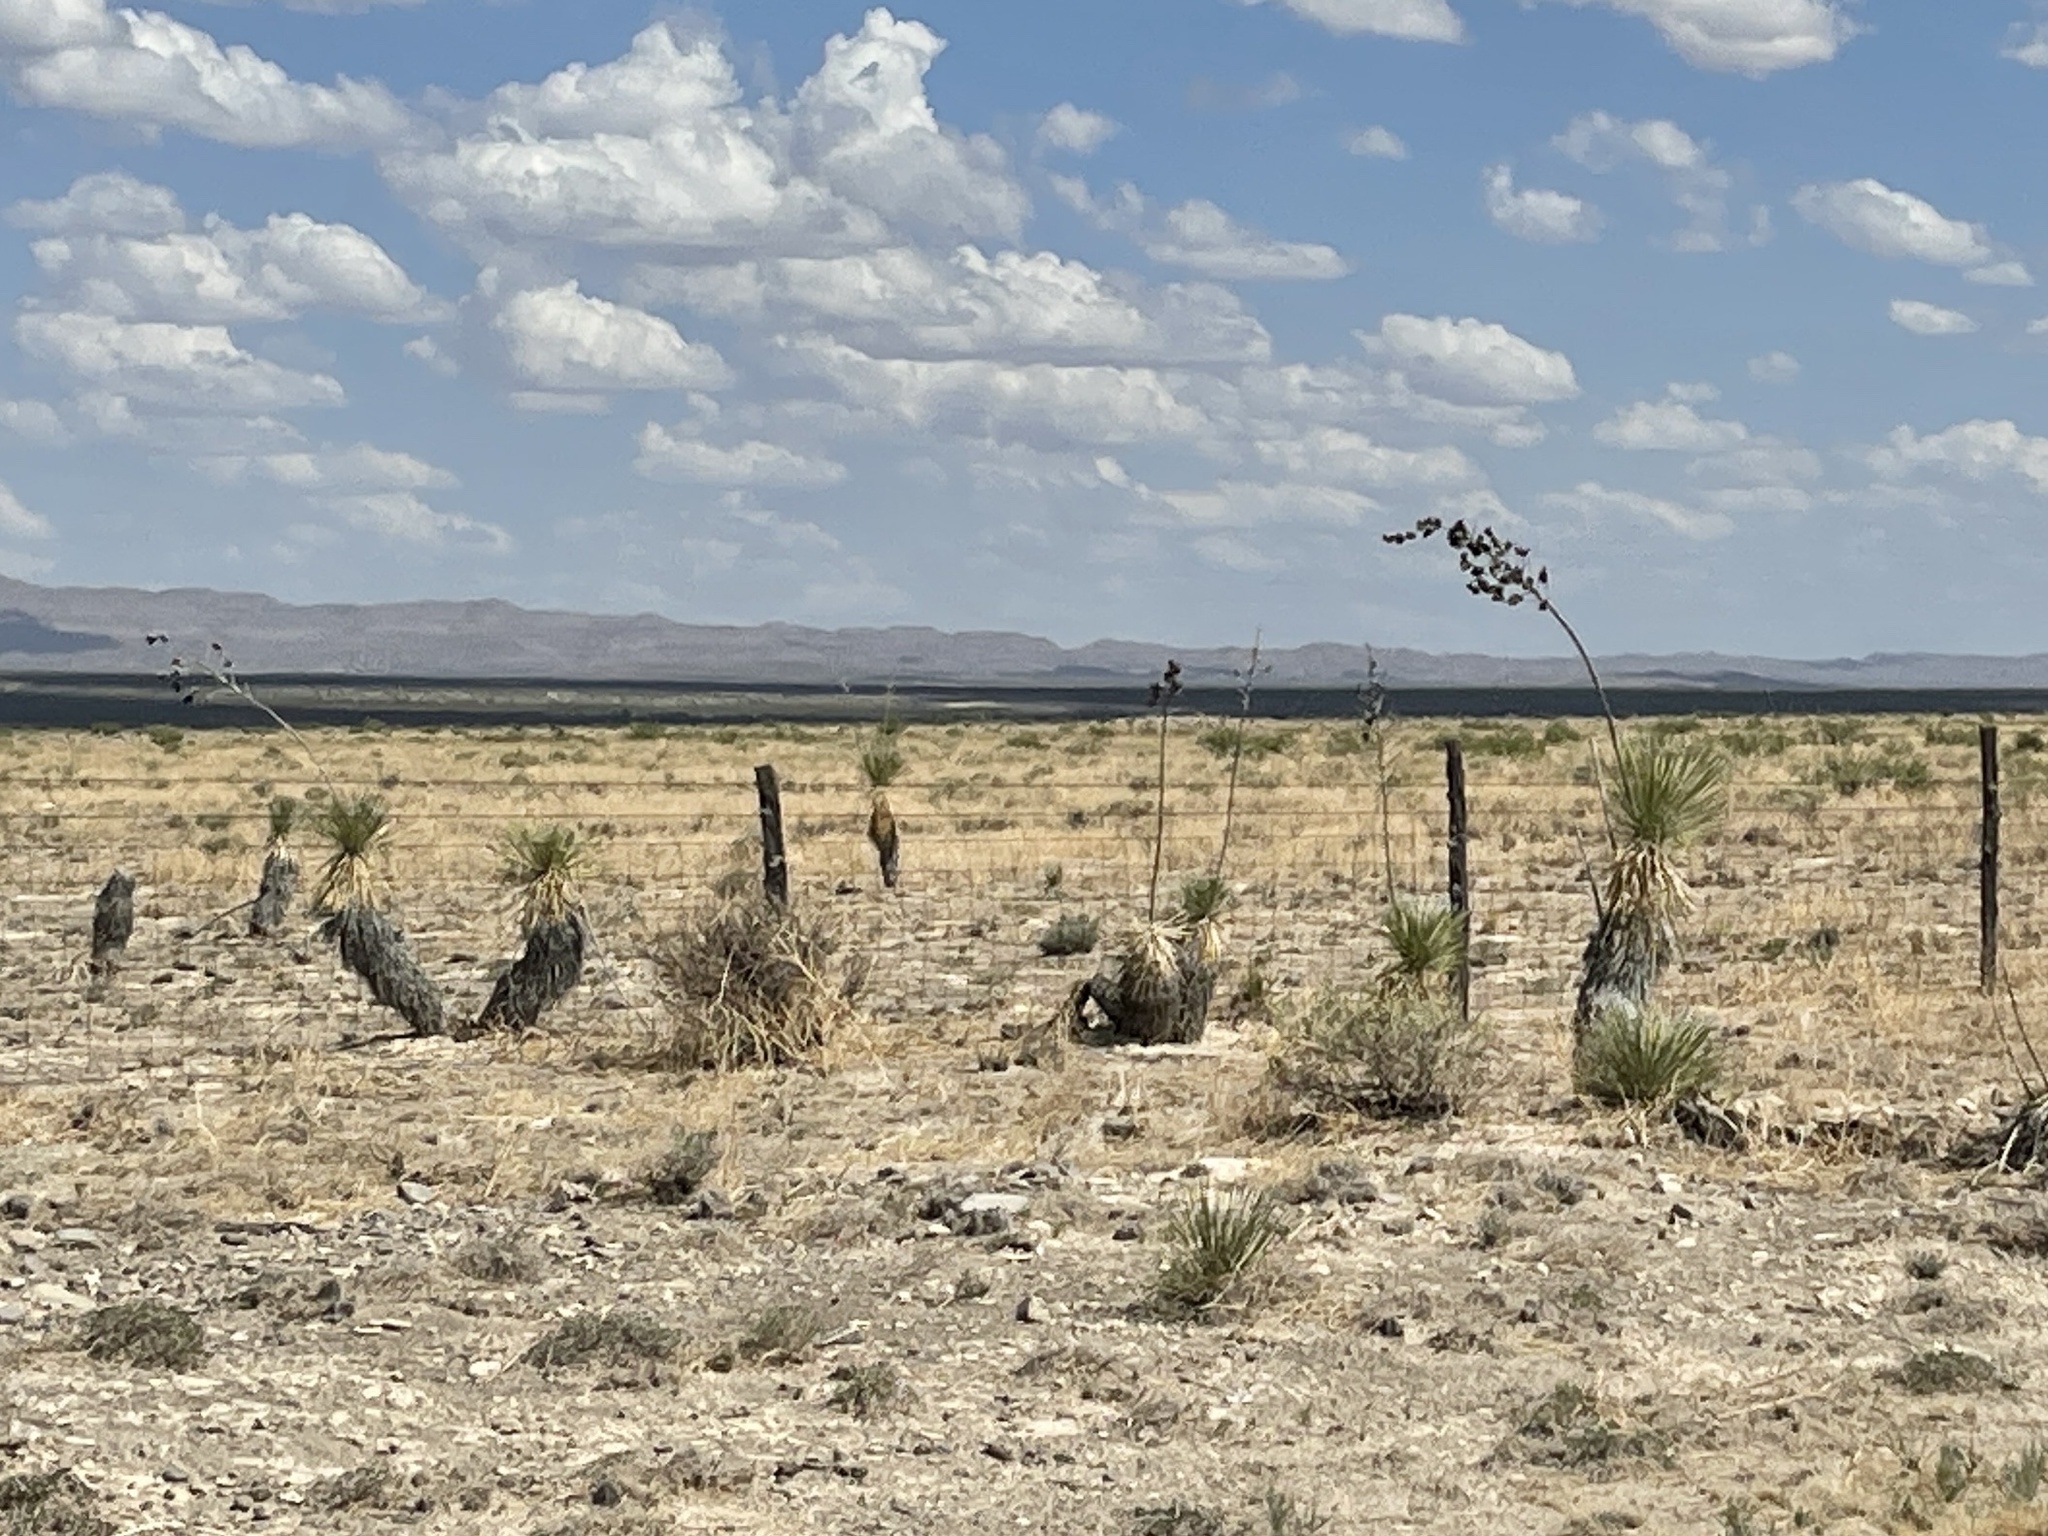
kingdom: Plantae
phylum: Tracheophyta
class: Liliopsida
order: Asparagales
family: Asparagaceae
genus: Yucca
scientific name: Yucca elata
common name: Palmella
